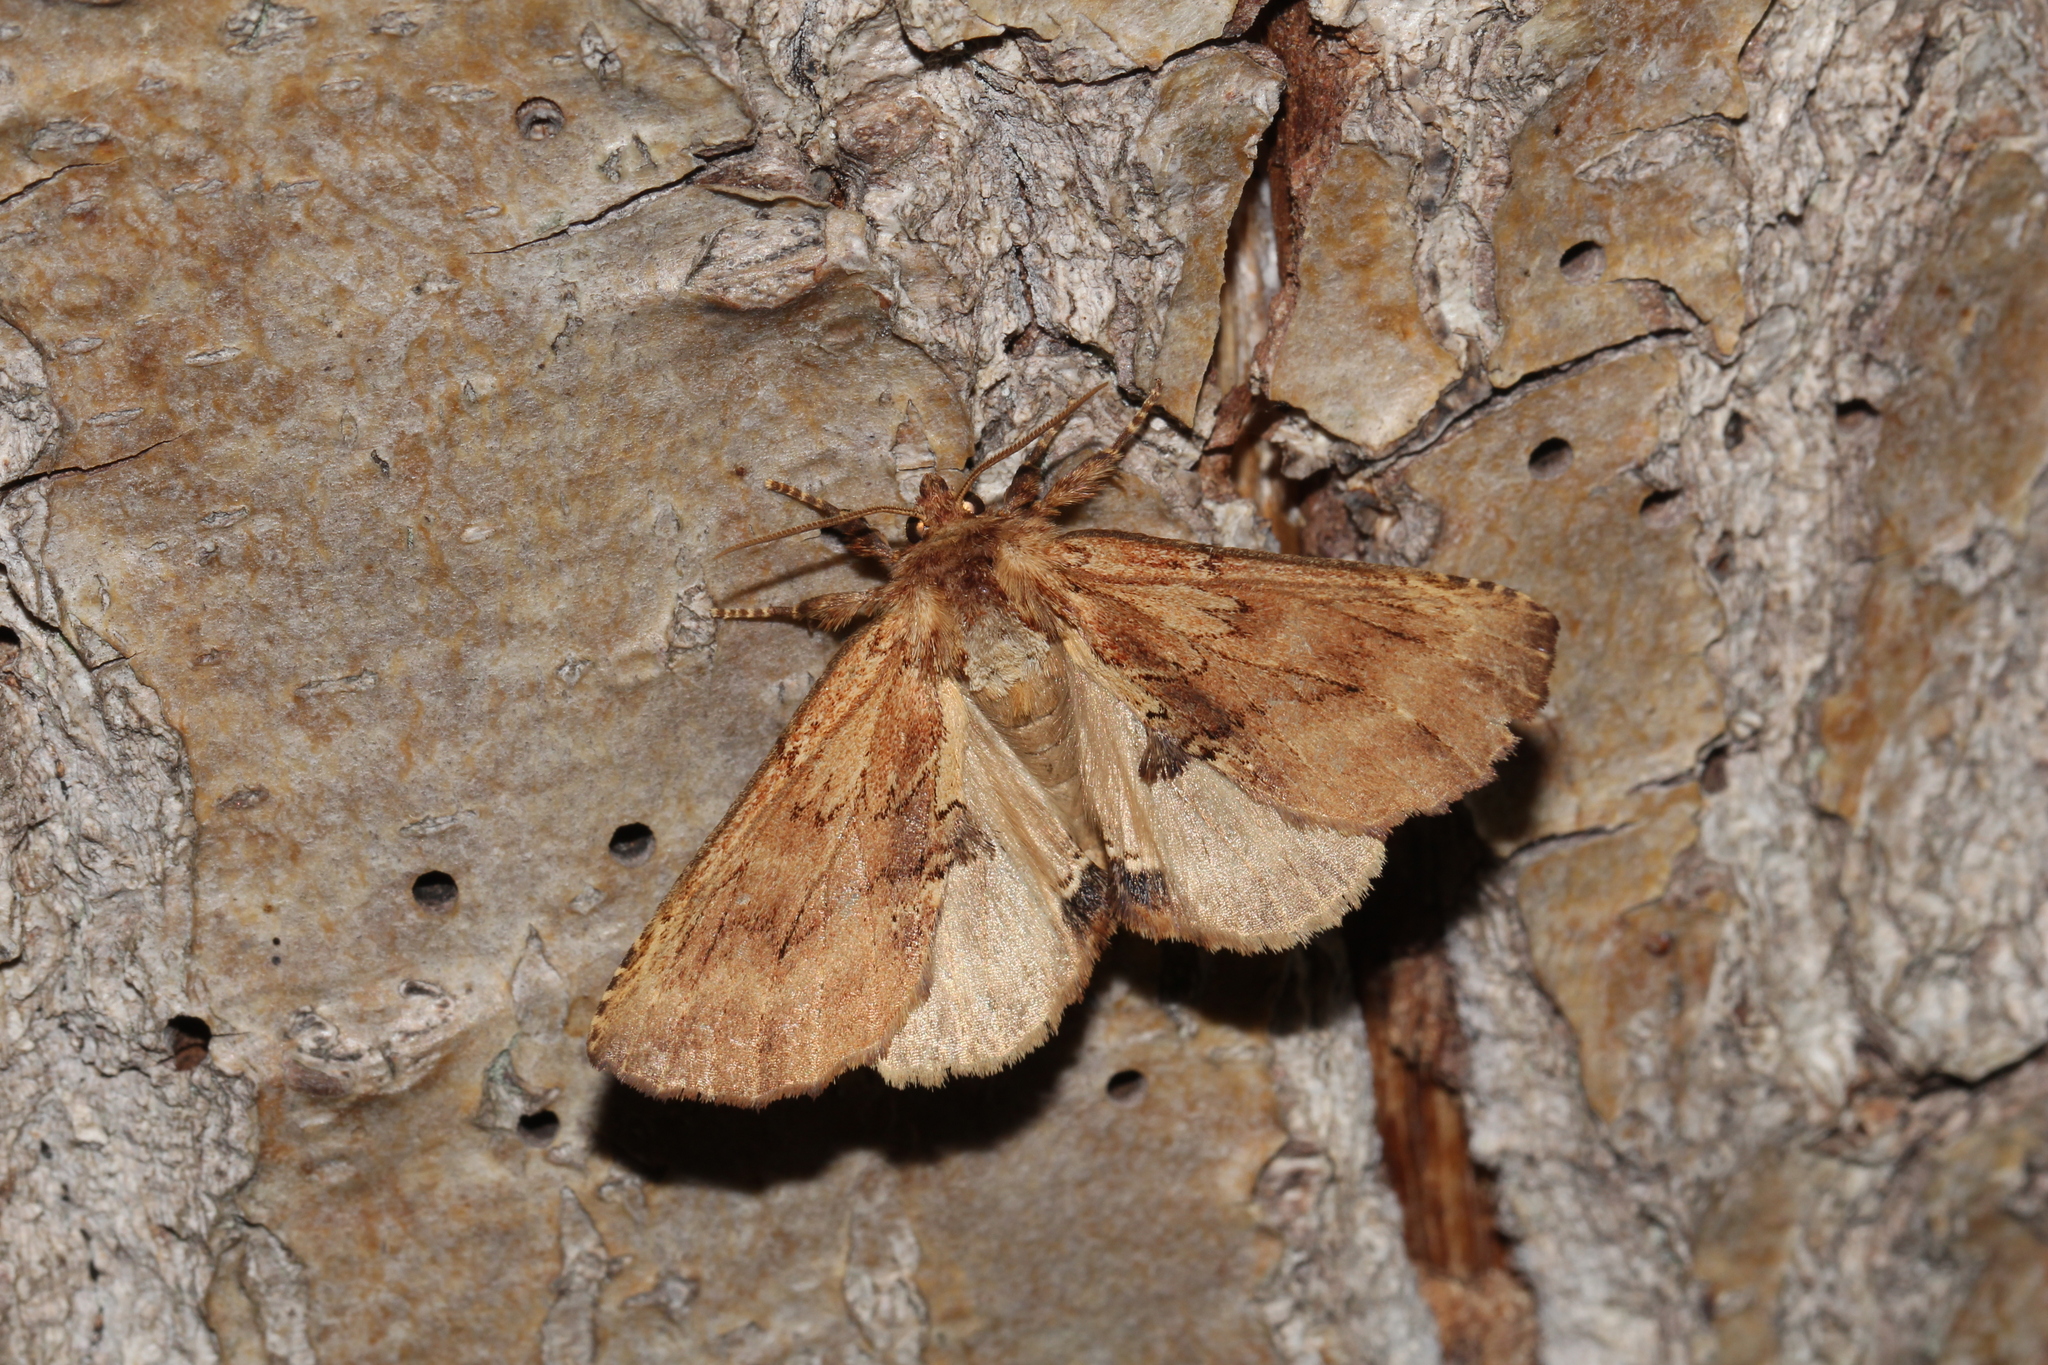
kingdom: Animalia
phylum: Arthropoda
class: Insecta
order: Lepidoptera
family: Notodontidae
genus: Ptilodon
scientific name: Ptilodon capucina
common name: Coxcomb prominent
